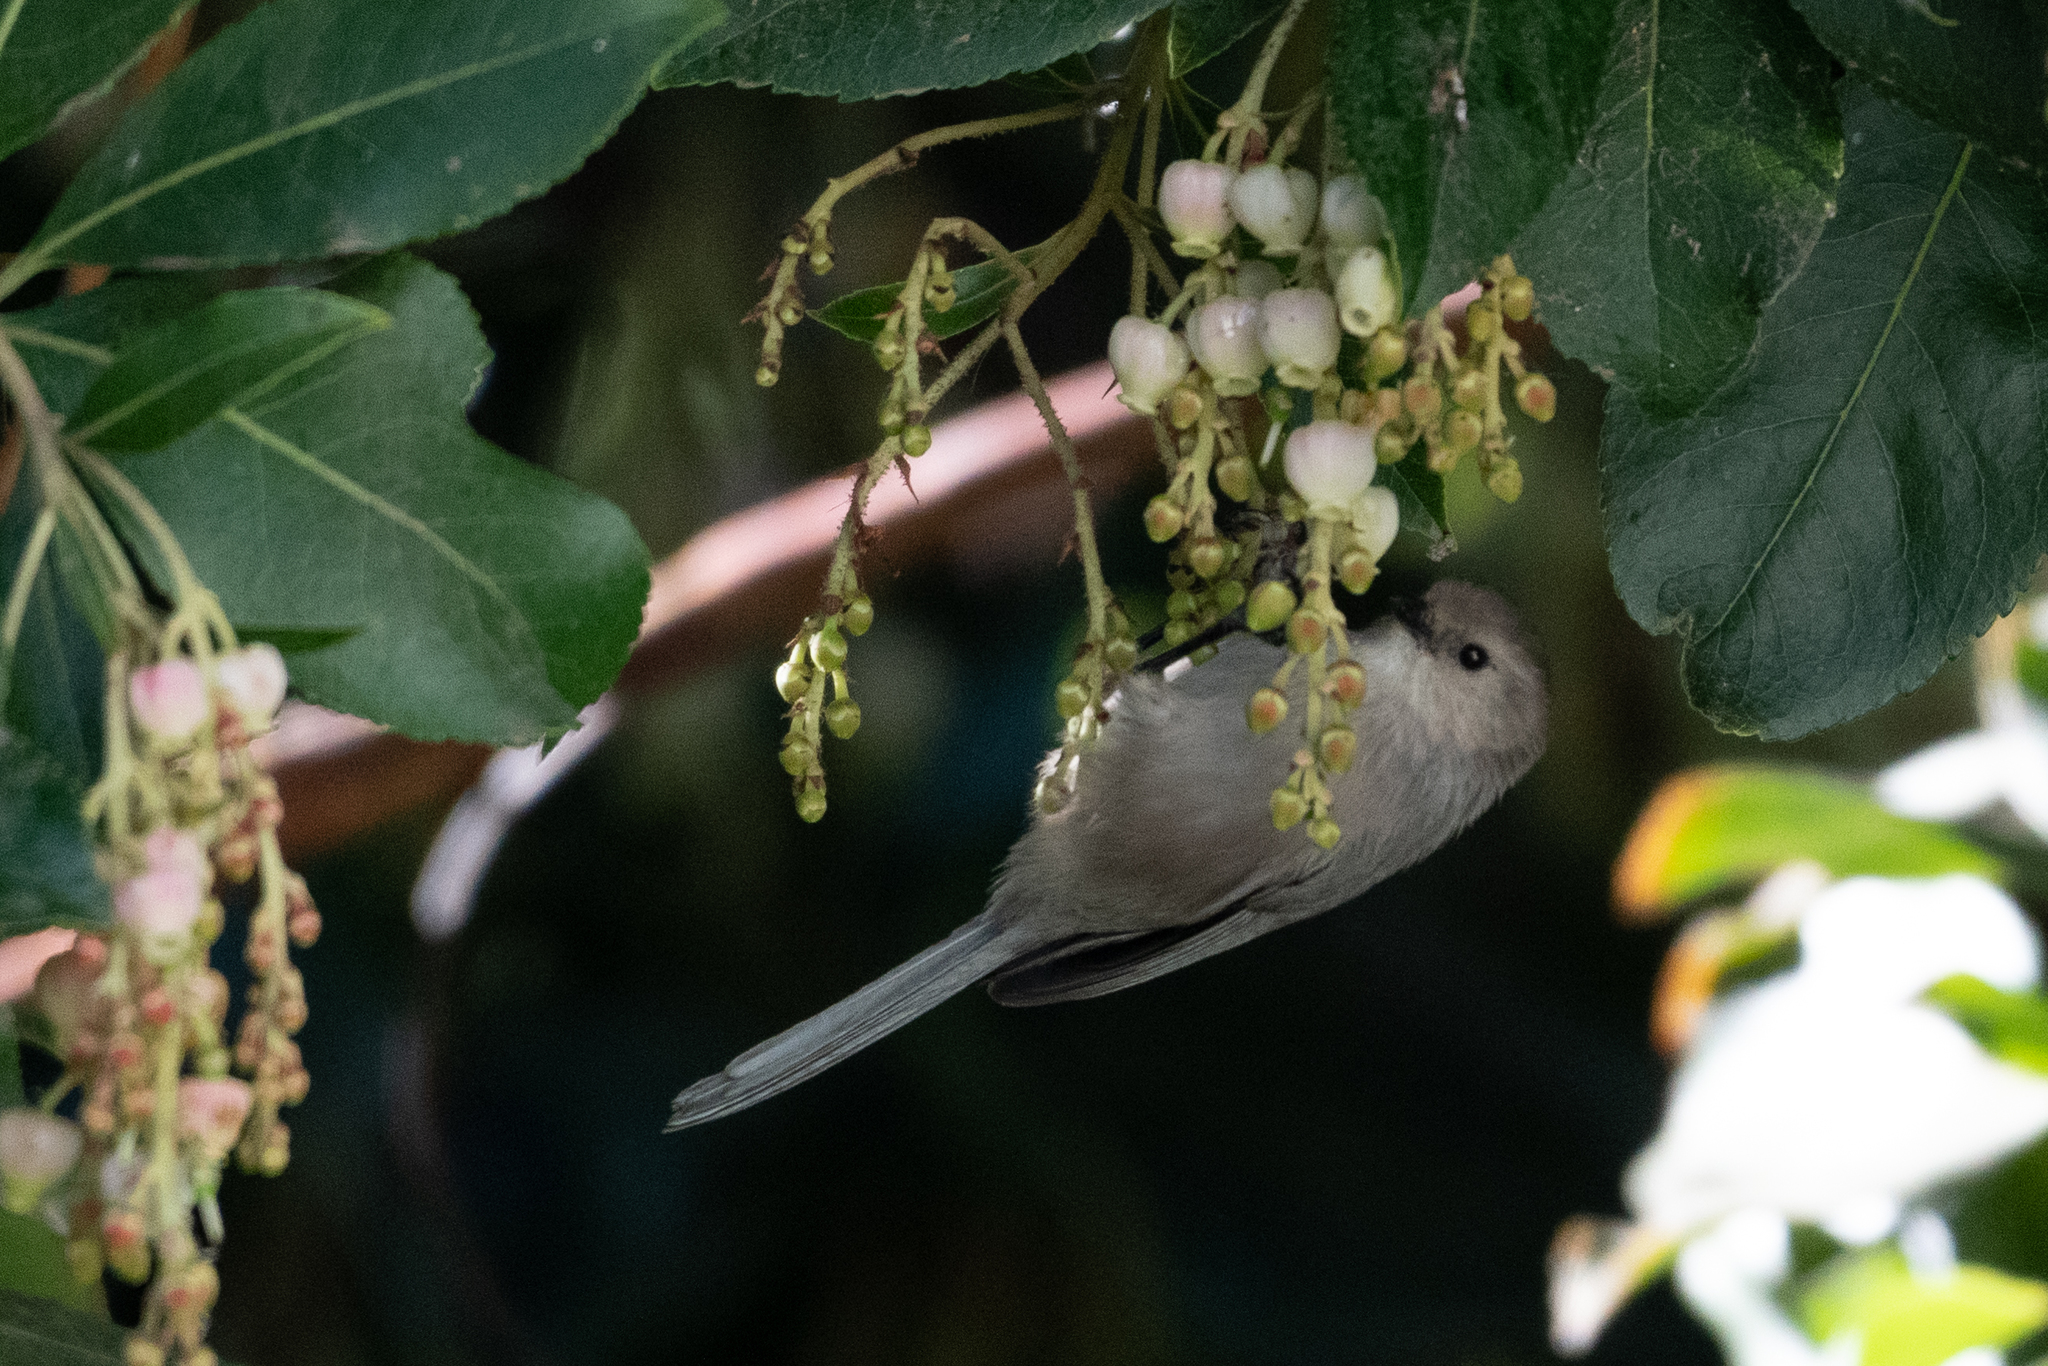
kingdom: Animalia
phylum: Chordata
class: Aves
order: Passeriformes
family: Aegithalidae
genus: Psaltriparus
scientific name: Psaltriparus minimus
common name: American bushtit
